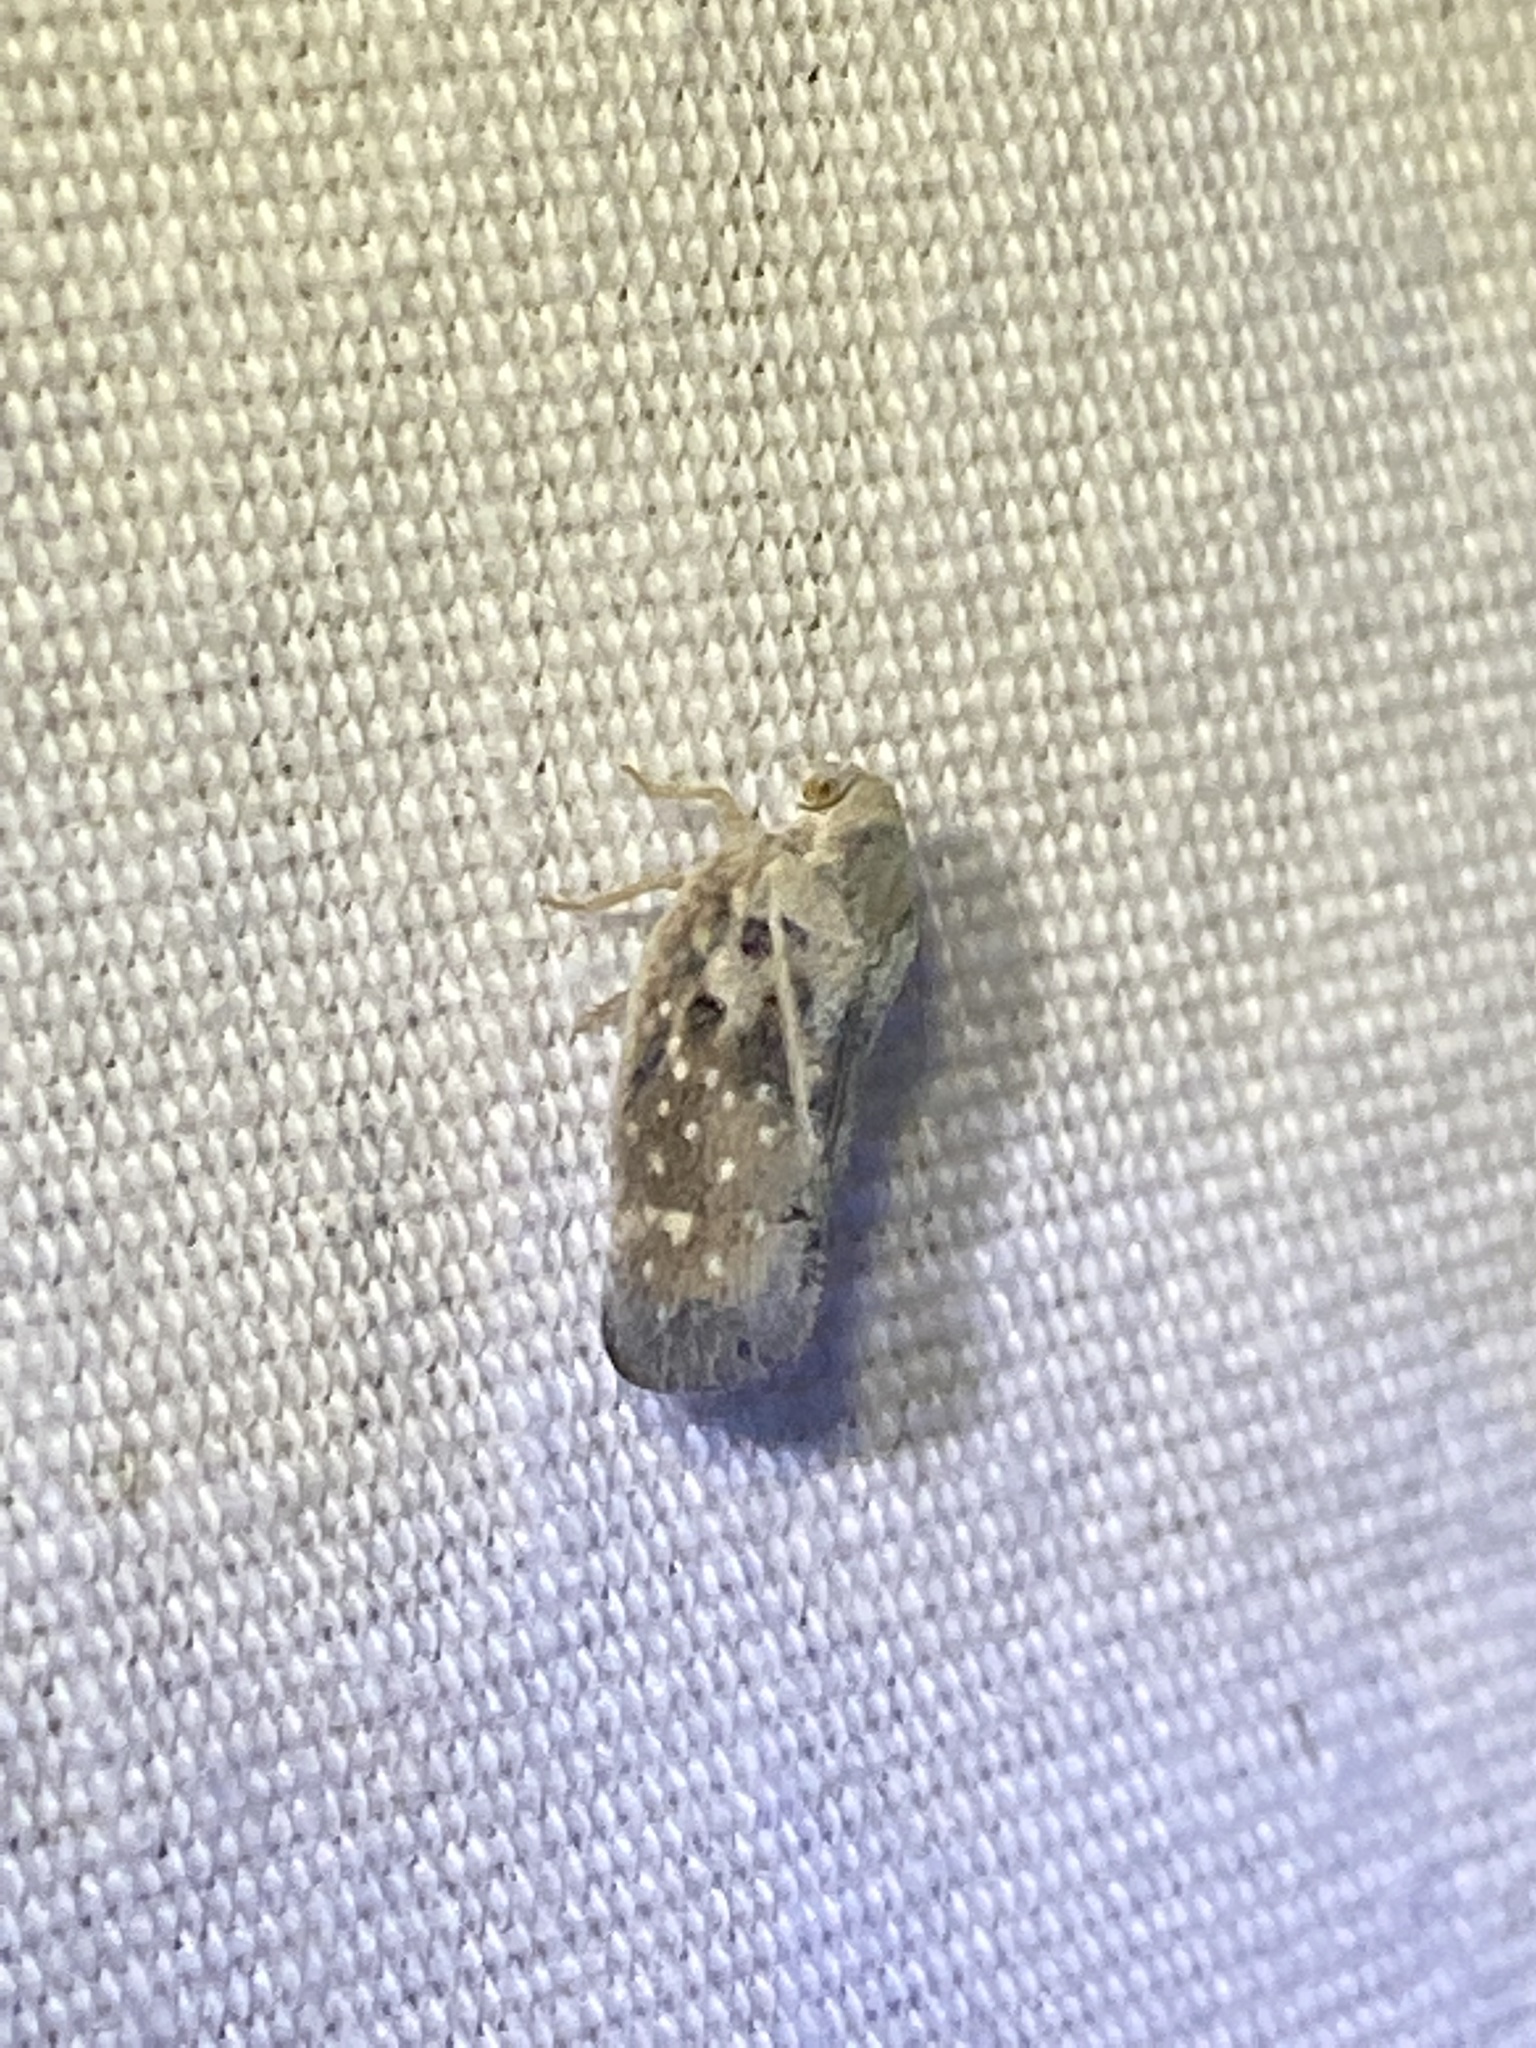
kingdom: Animalia
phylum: Arthropoda
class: Insecta
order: Hemiptera
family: Flatidae
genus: Metcalfa
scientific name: Metcalfa pruinosa
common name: Citrus flatid planthopper
